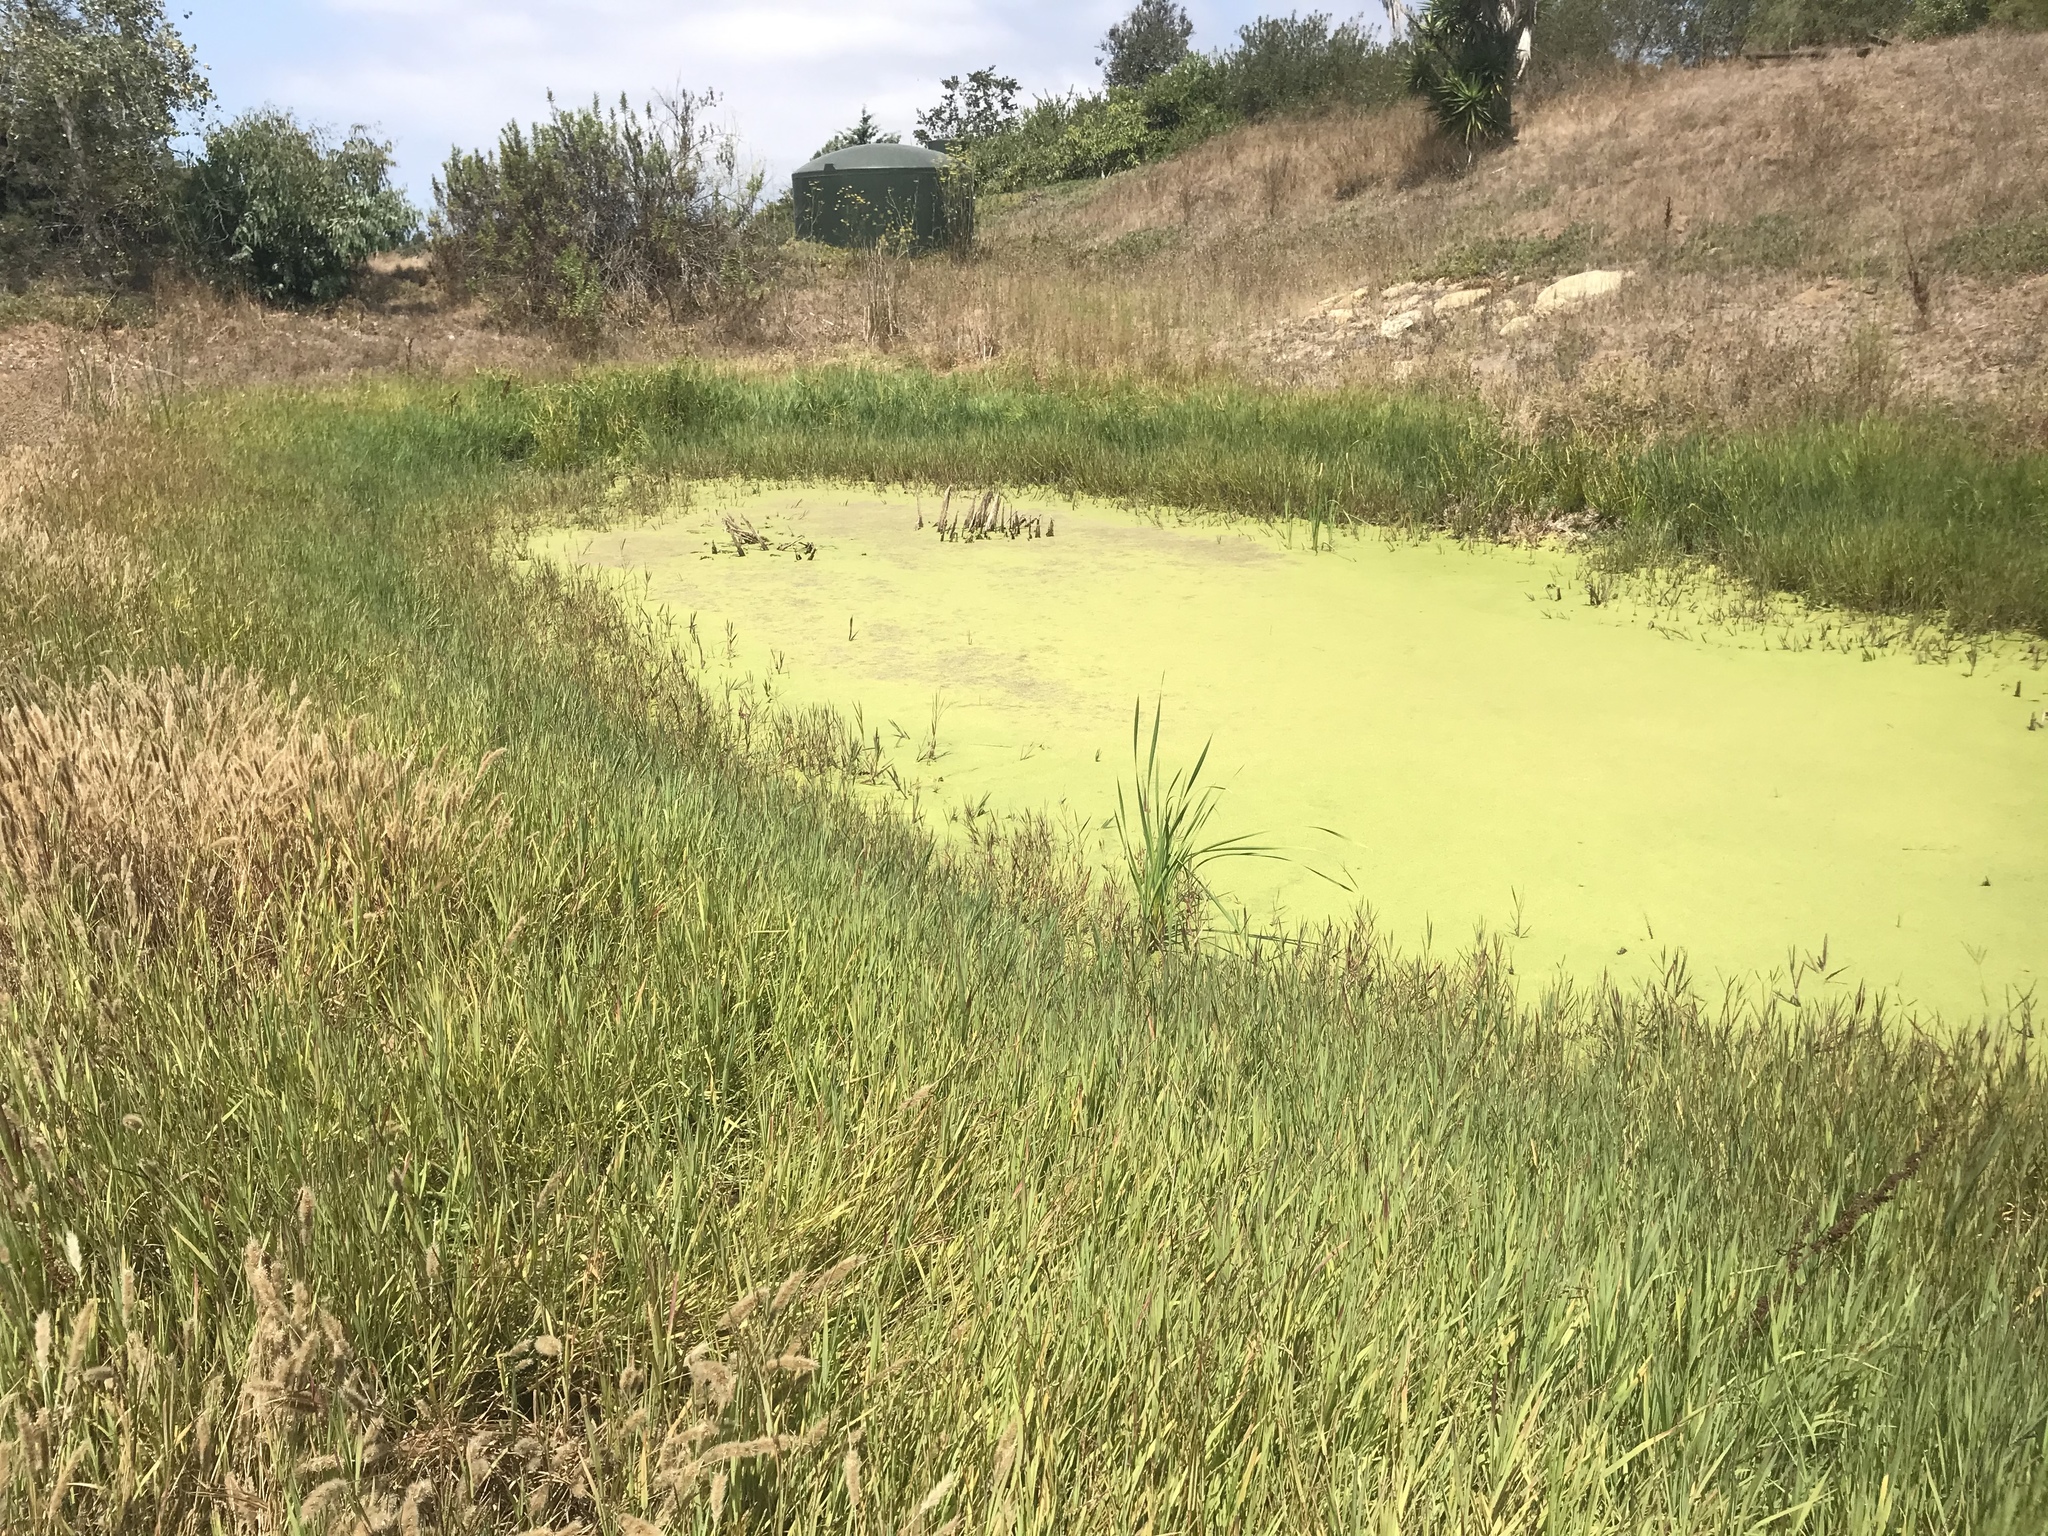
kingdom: Plantae
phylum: Tracheophyta
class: Liliopsida
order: Poales
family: Poaceae
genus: Paspalum
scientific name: Paspalum distichum
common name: Knotgrass
